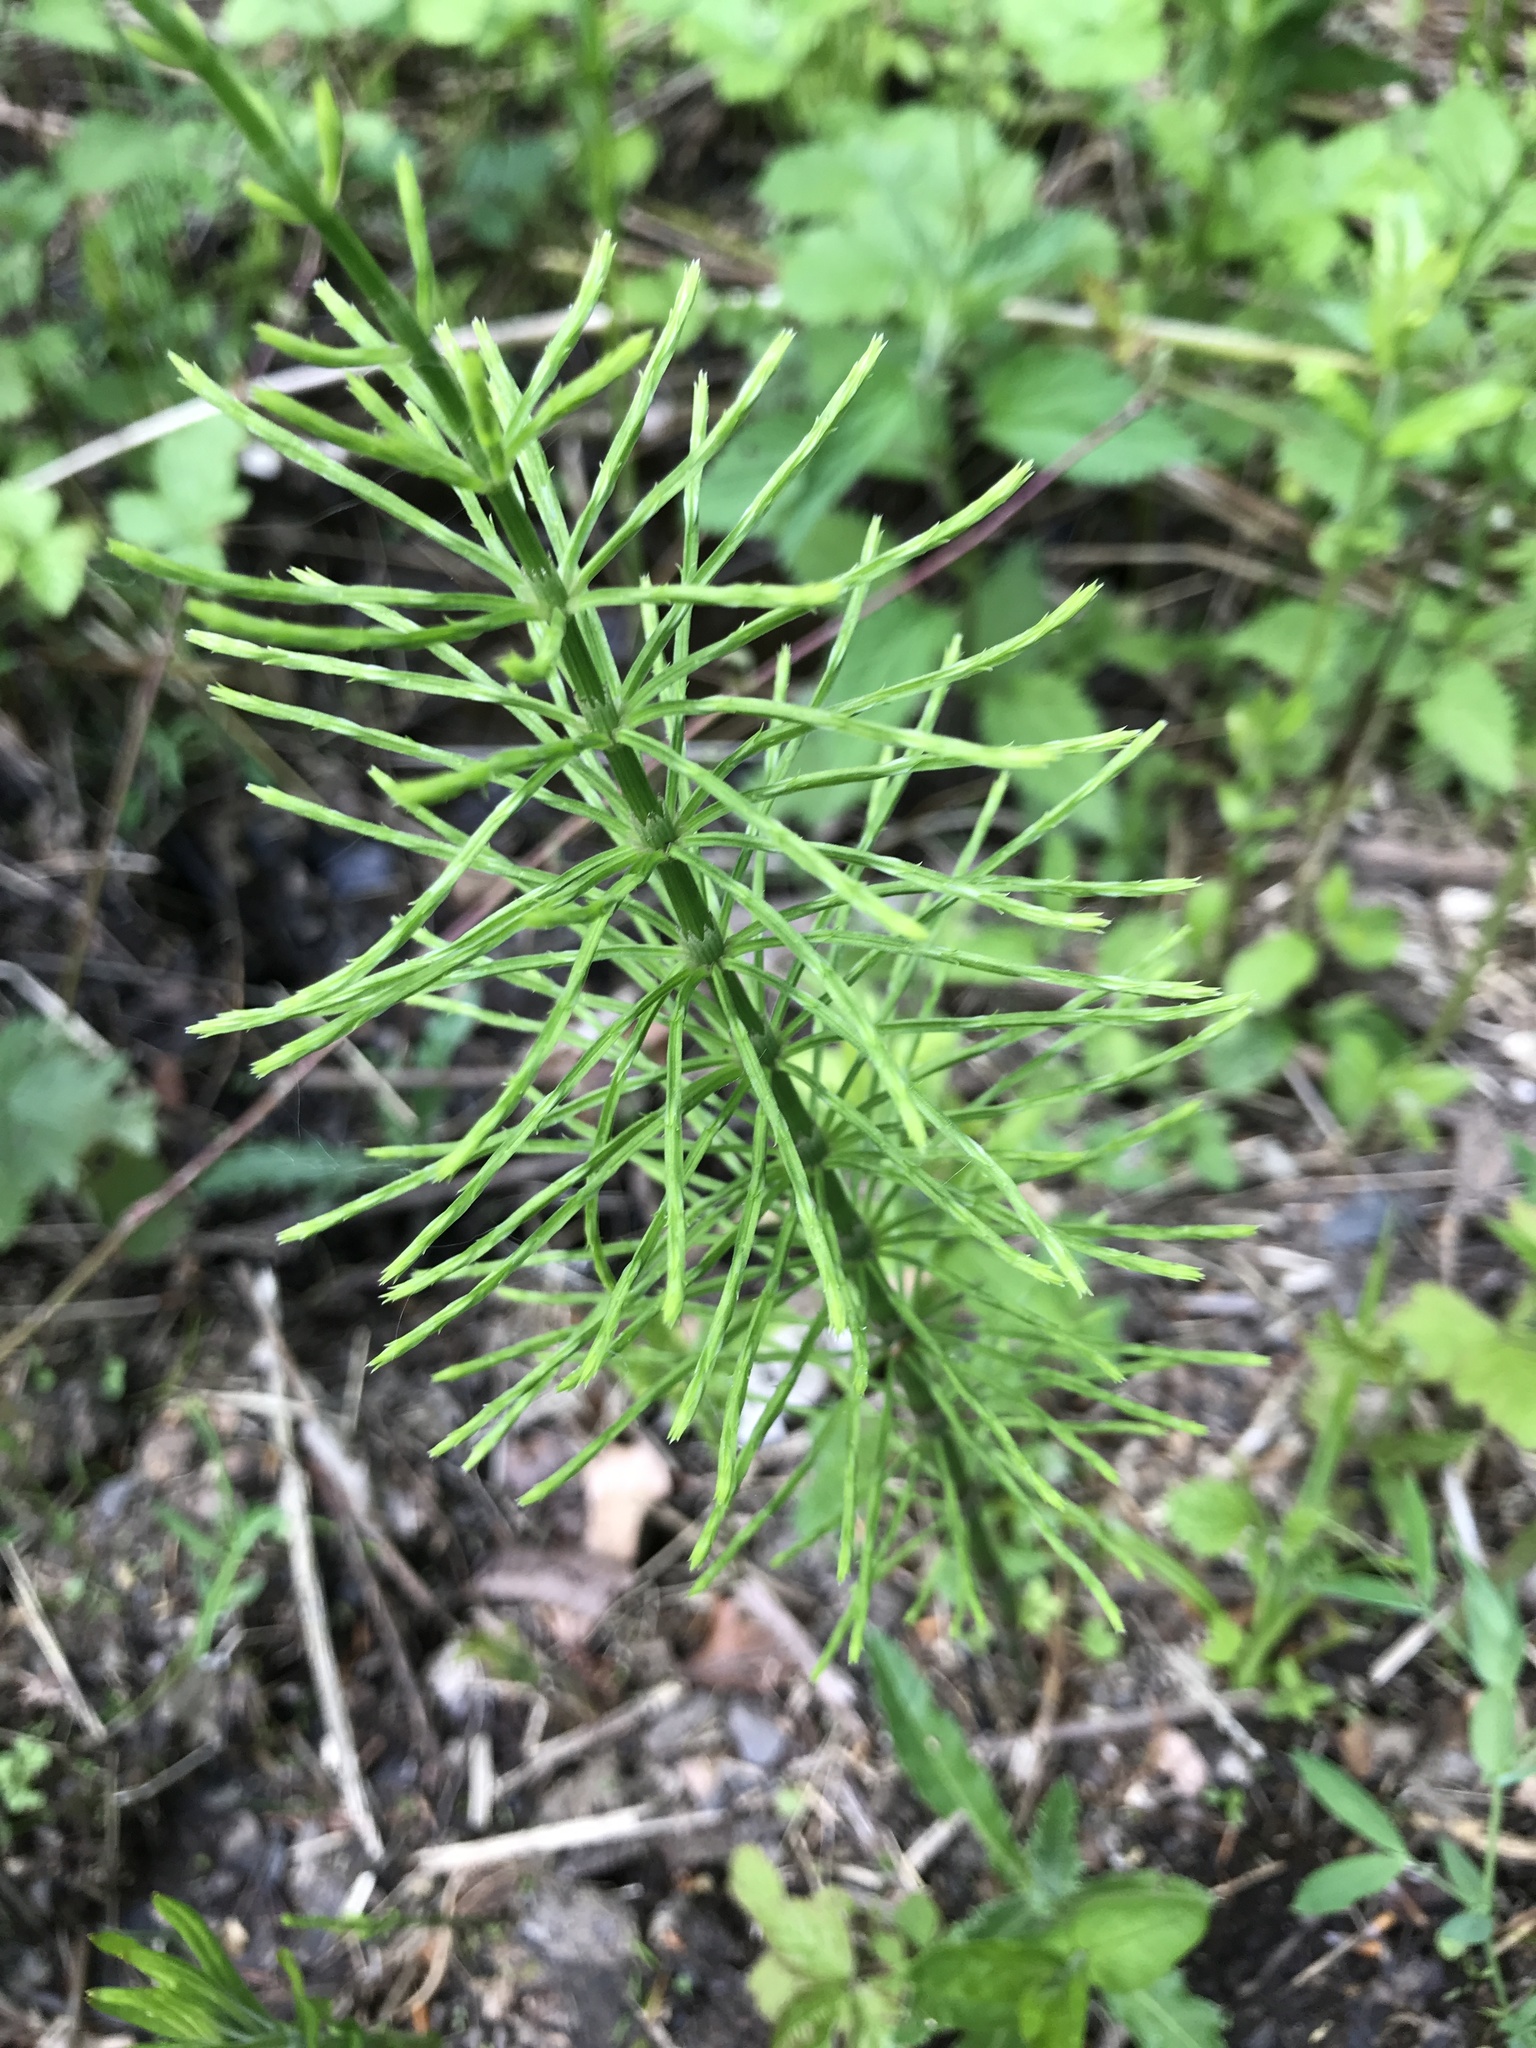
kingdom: Plantae
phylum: Tracheophyta
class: Polypodiopsida
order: Equisetales
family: Equisetaceae
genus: Equisetum
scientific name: Equisetum arvense
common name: Field horsetail
